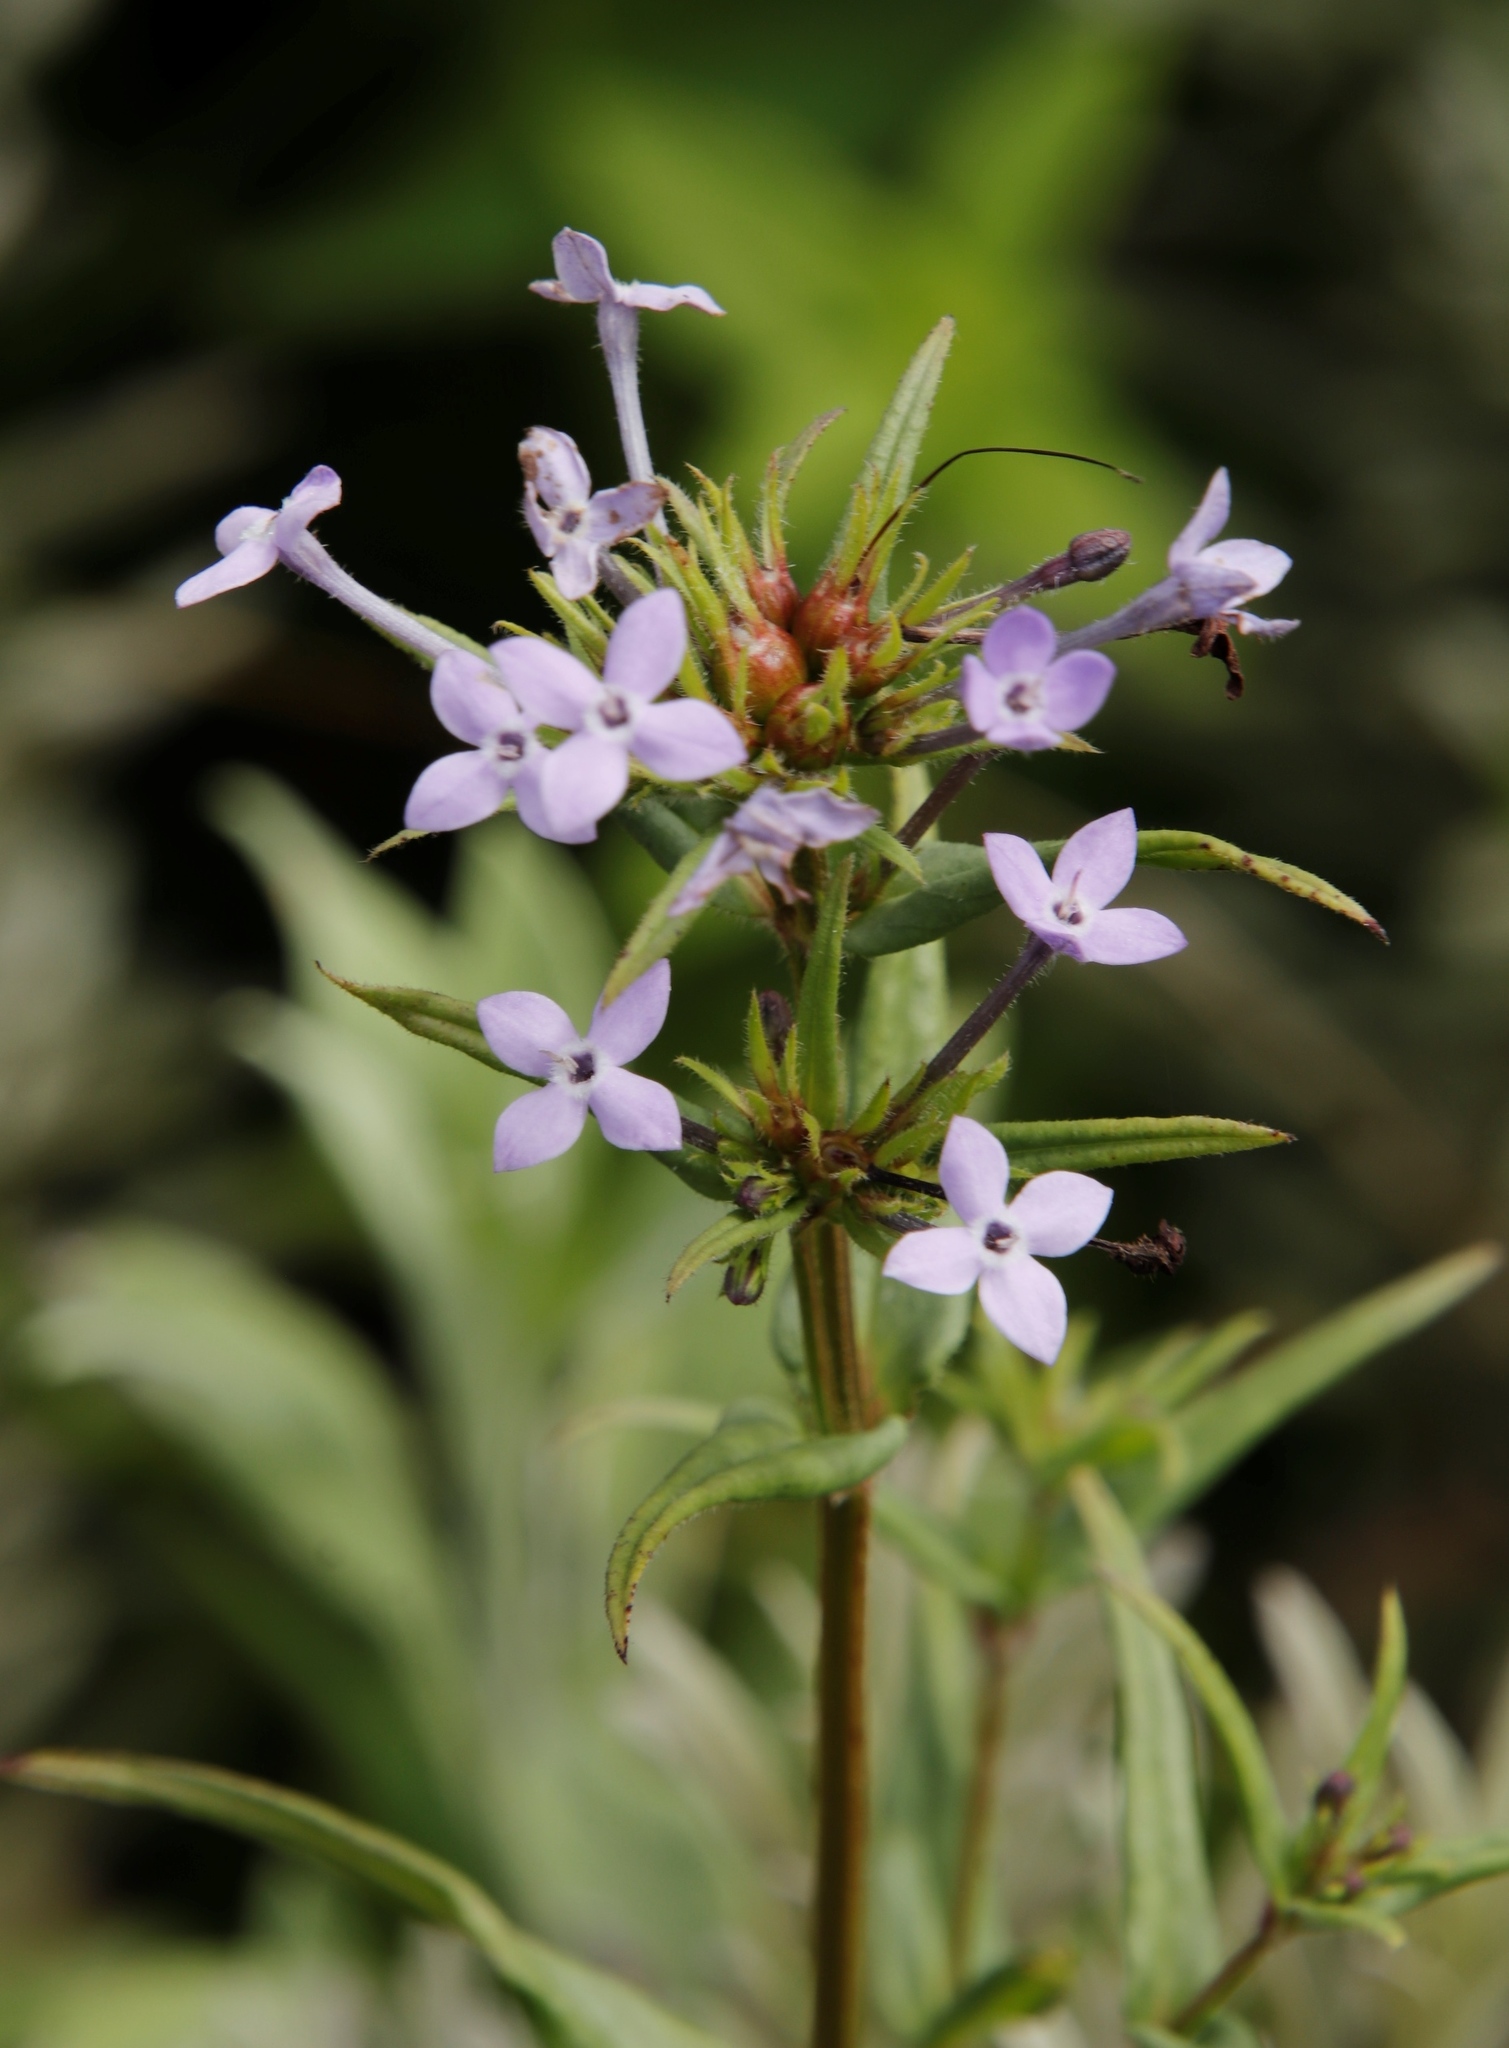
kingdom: Plantae
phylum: Tracheophyta
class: Magnoliopsida
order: Gentianales
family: Rubiaceae
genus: Conostomium
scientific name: Conostomium natalense
